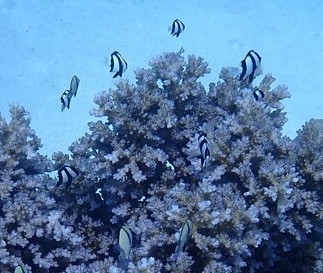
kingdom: Animalia
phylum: Chordata
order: Perciformes
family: Pomacentridae
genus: Dascyllus
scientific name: Dascyllus aruanus
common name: Humbug dascyllus
